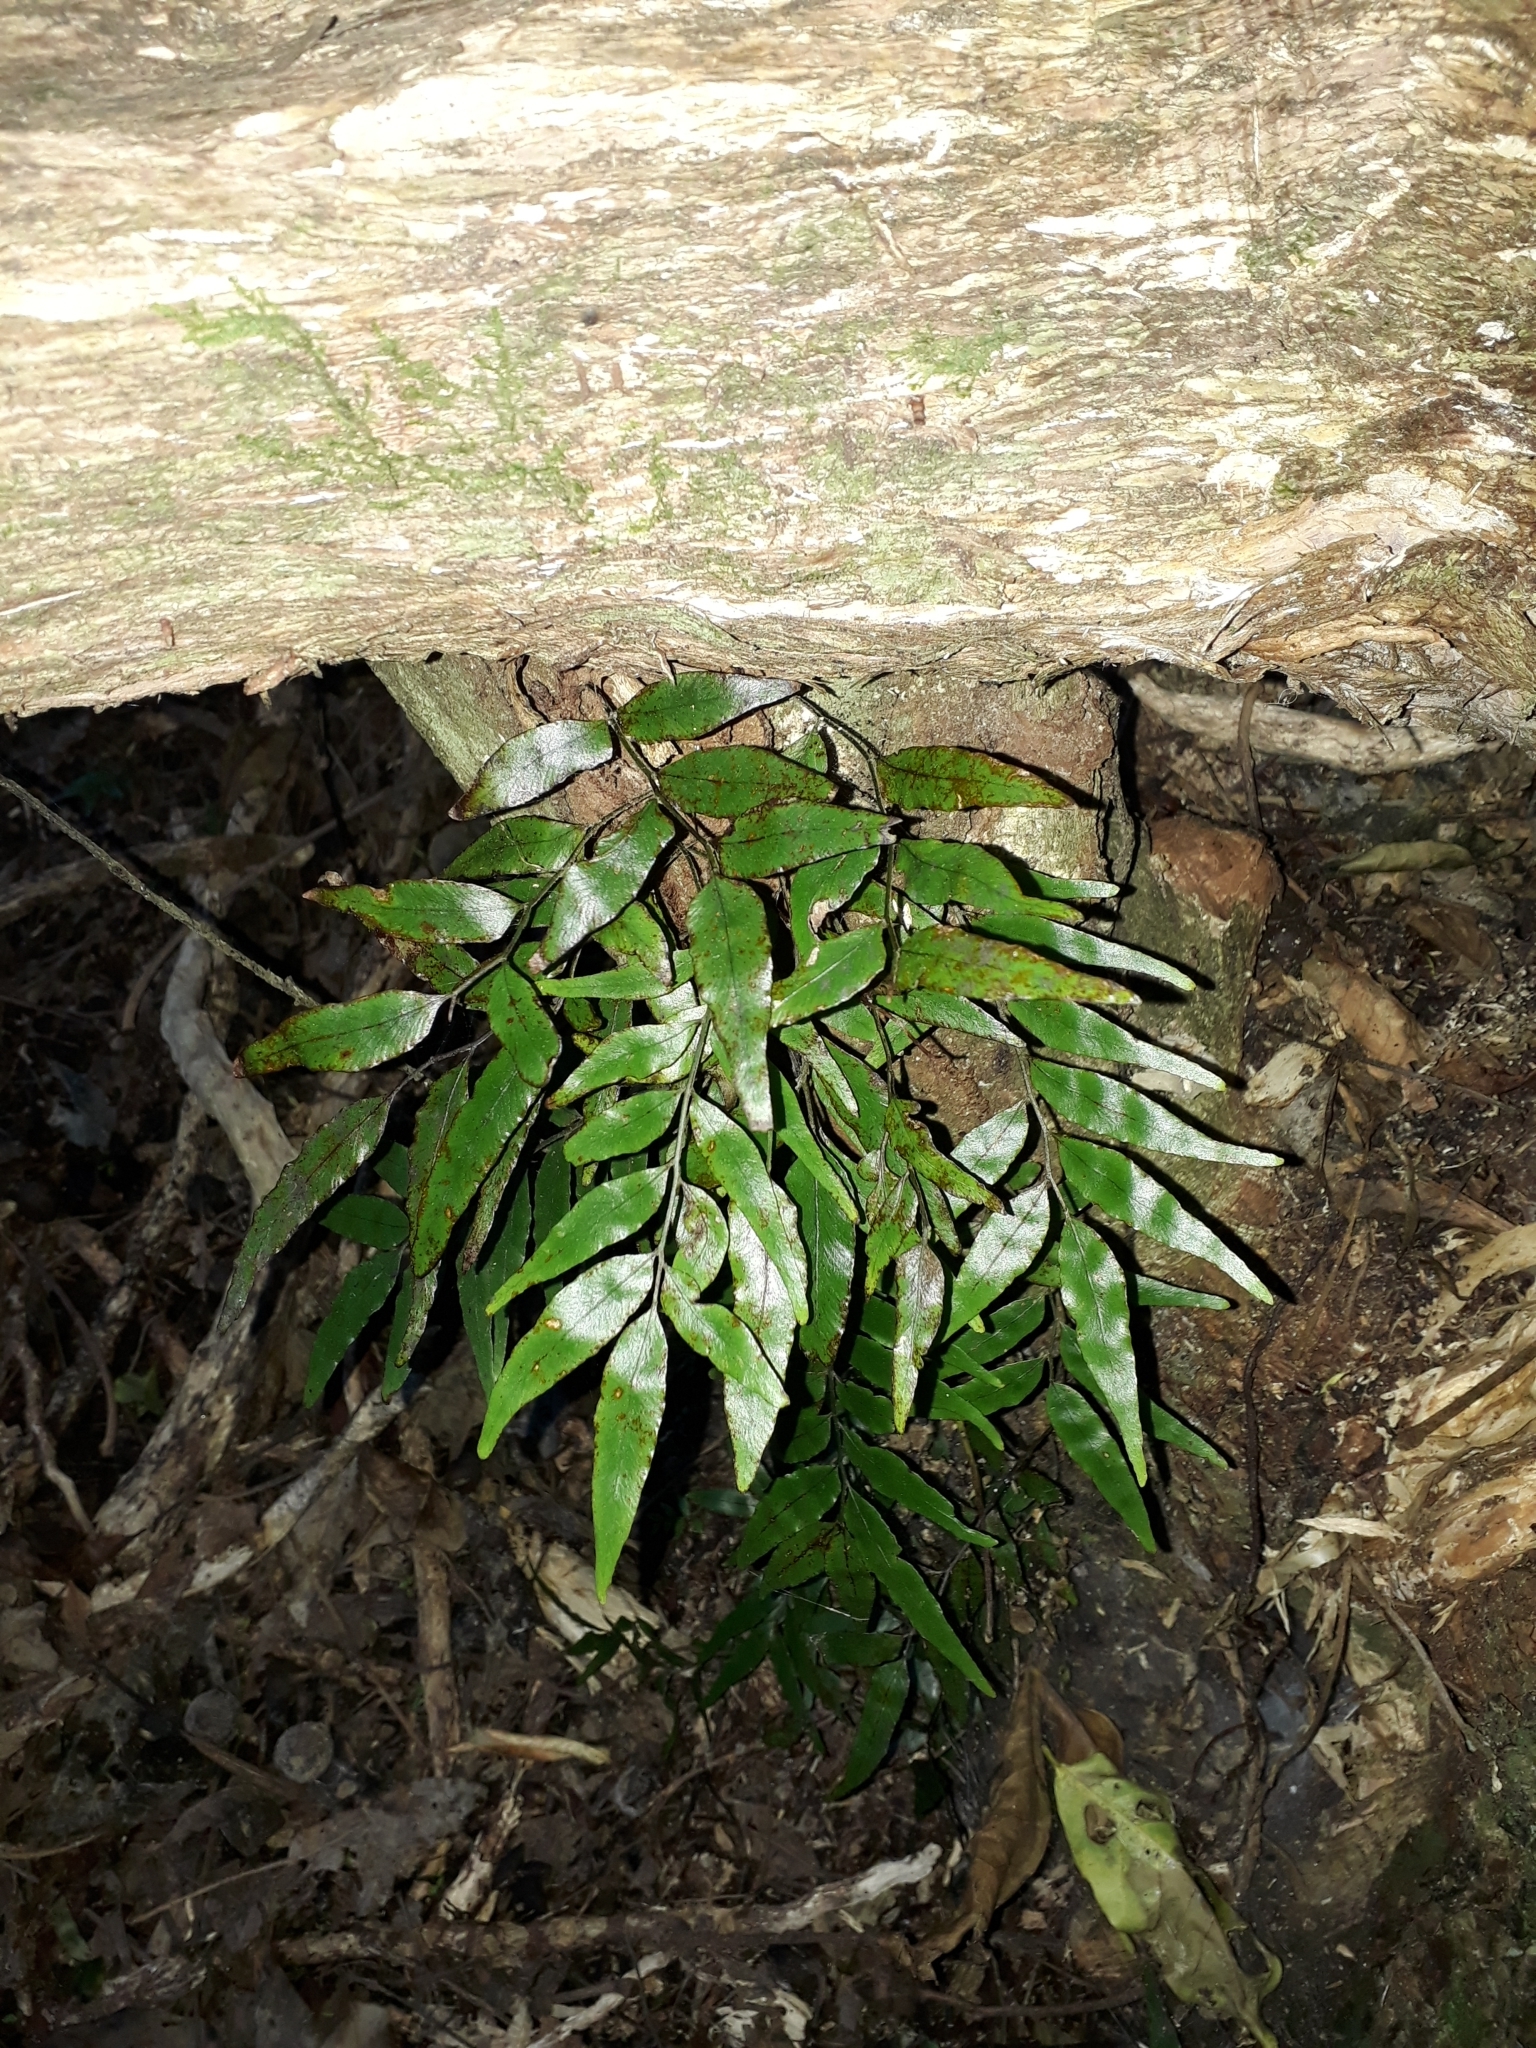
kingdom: Plantae
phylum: Tracheophyta
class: Polypodiopsida
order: Polypodiales
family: Tectariaceae
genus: Arthropteris
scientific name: Arthropteris tenella
